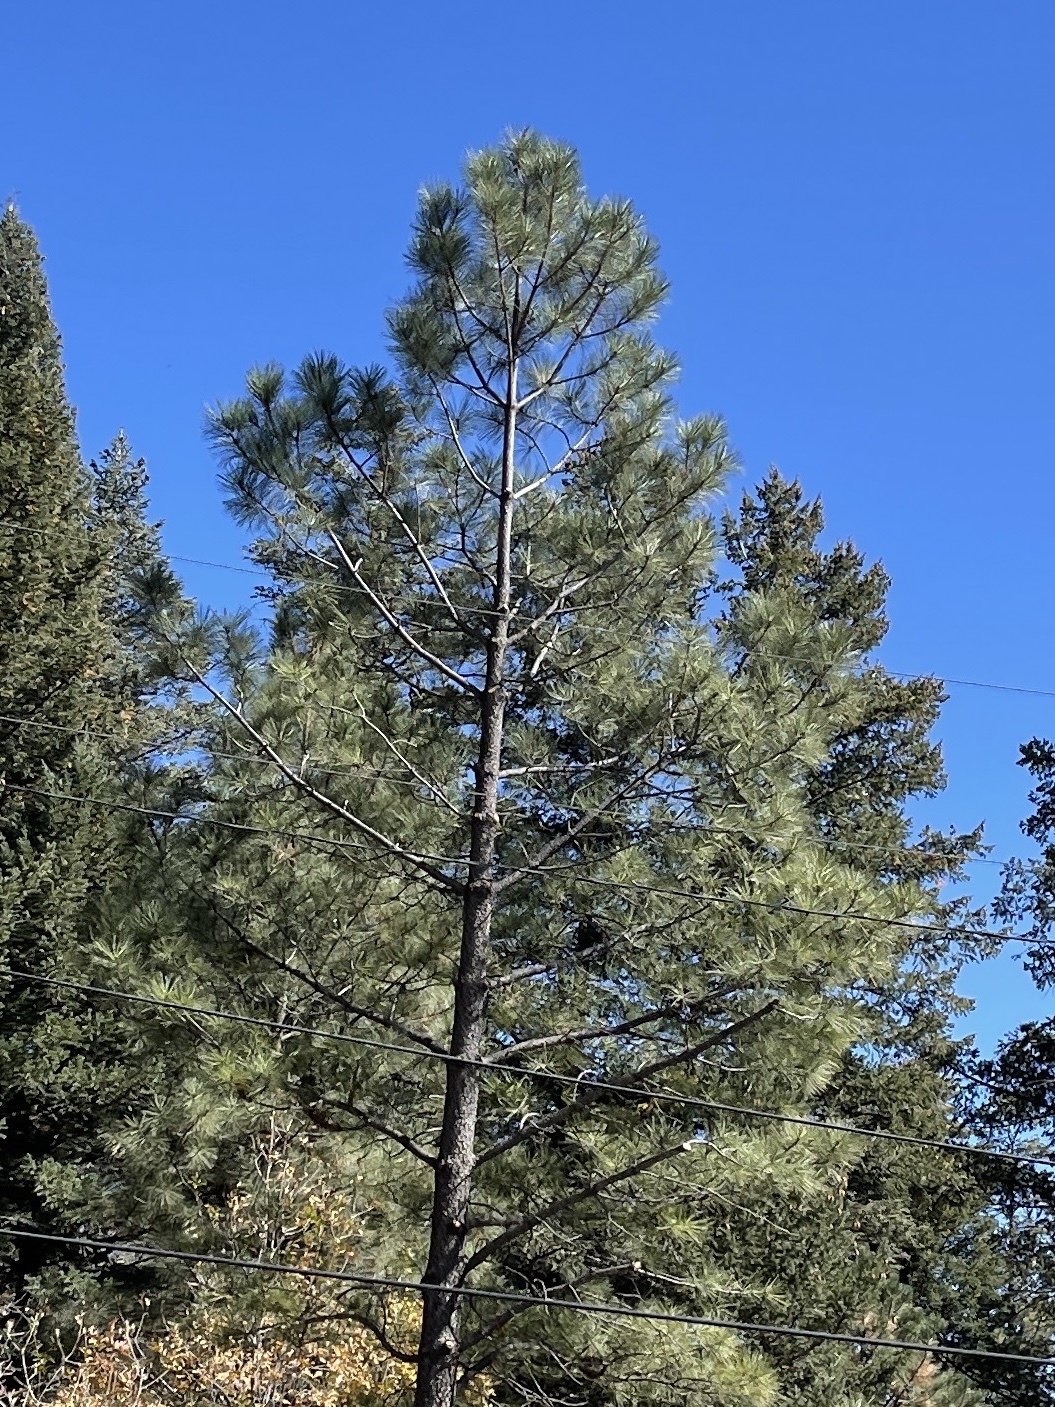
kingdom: Plantae
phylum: Tracheophyta
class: Pinopsida
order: Pinales
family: Pinaceae
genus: Pinus
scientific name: Pinus ponderosa
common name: Western yellow-pine
